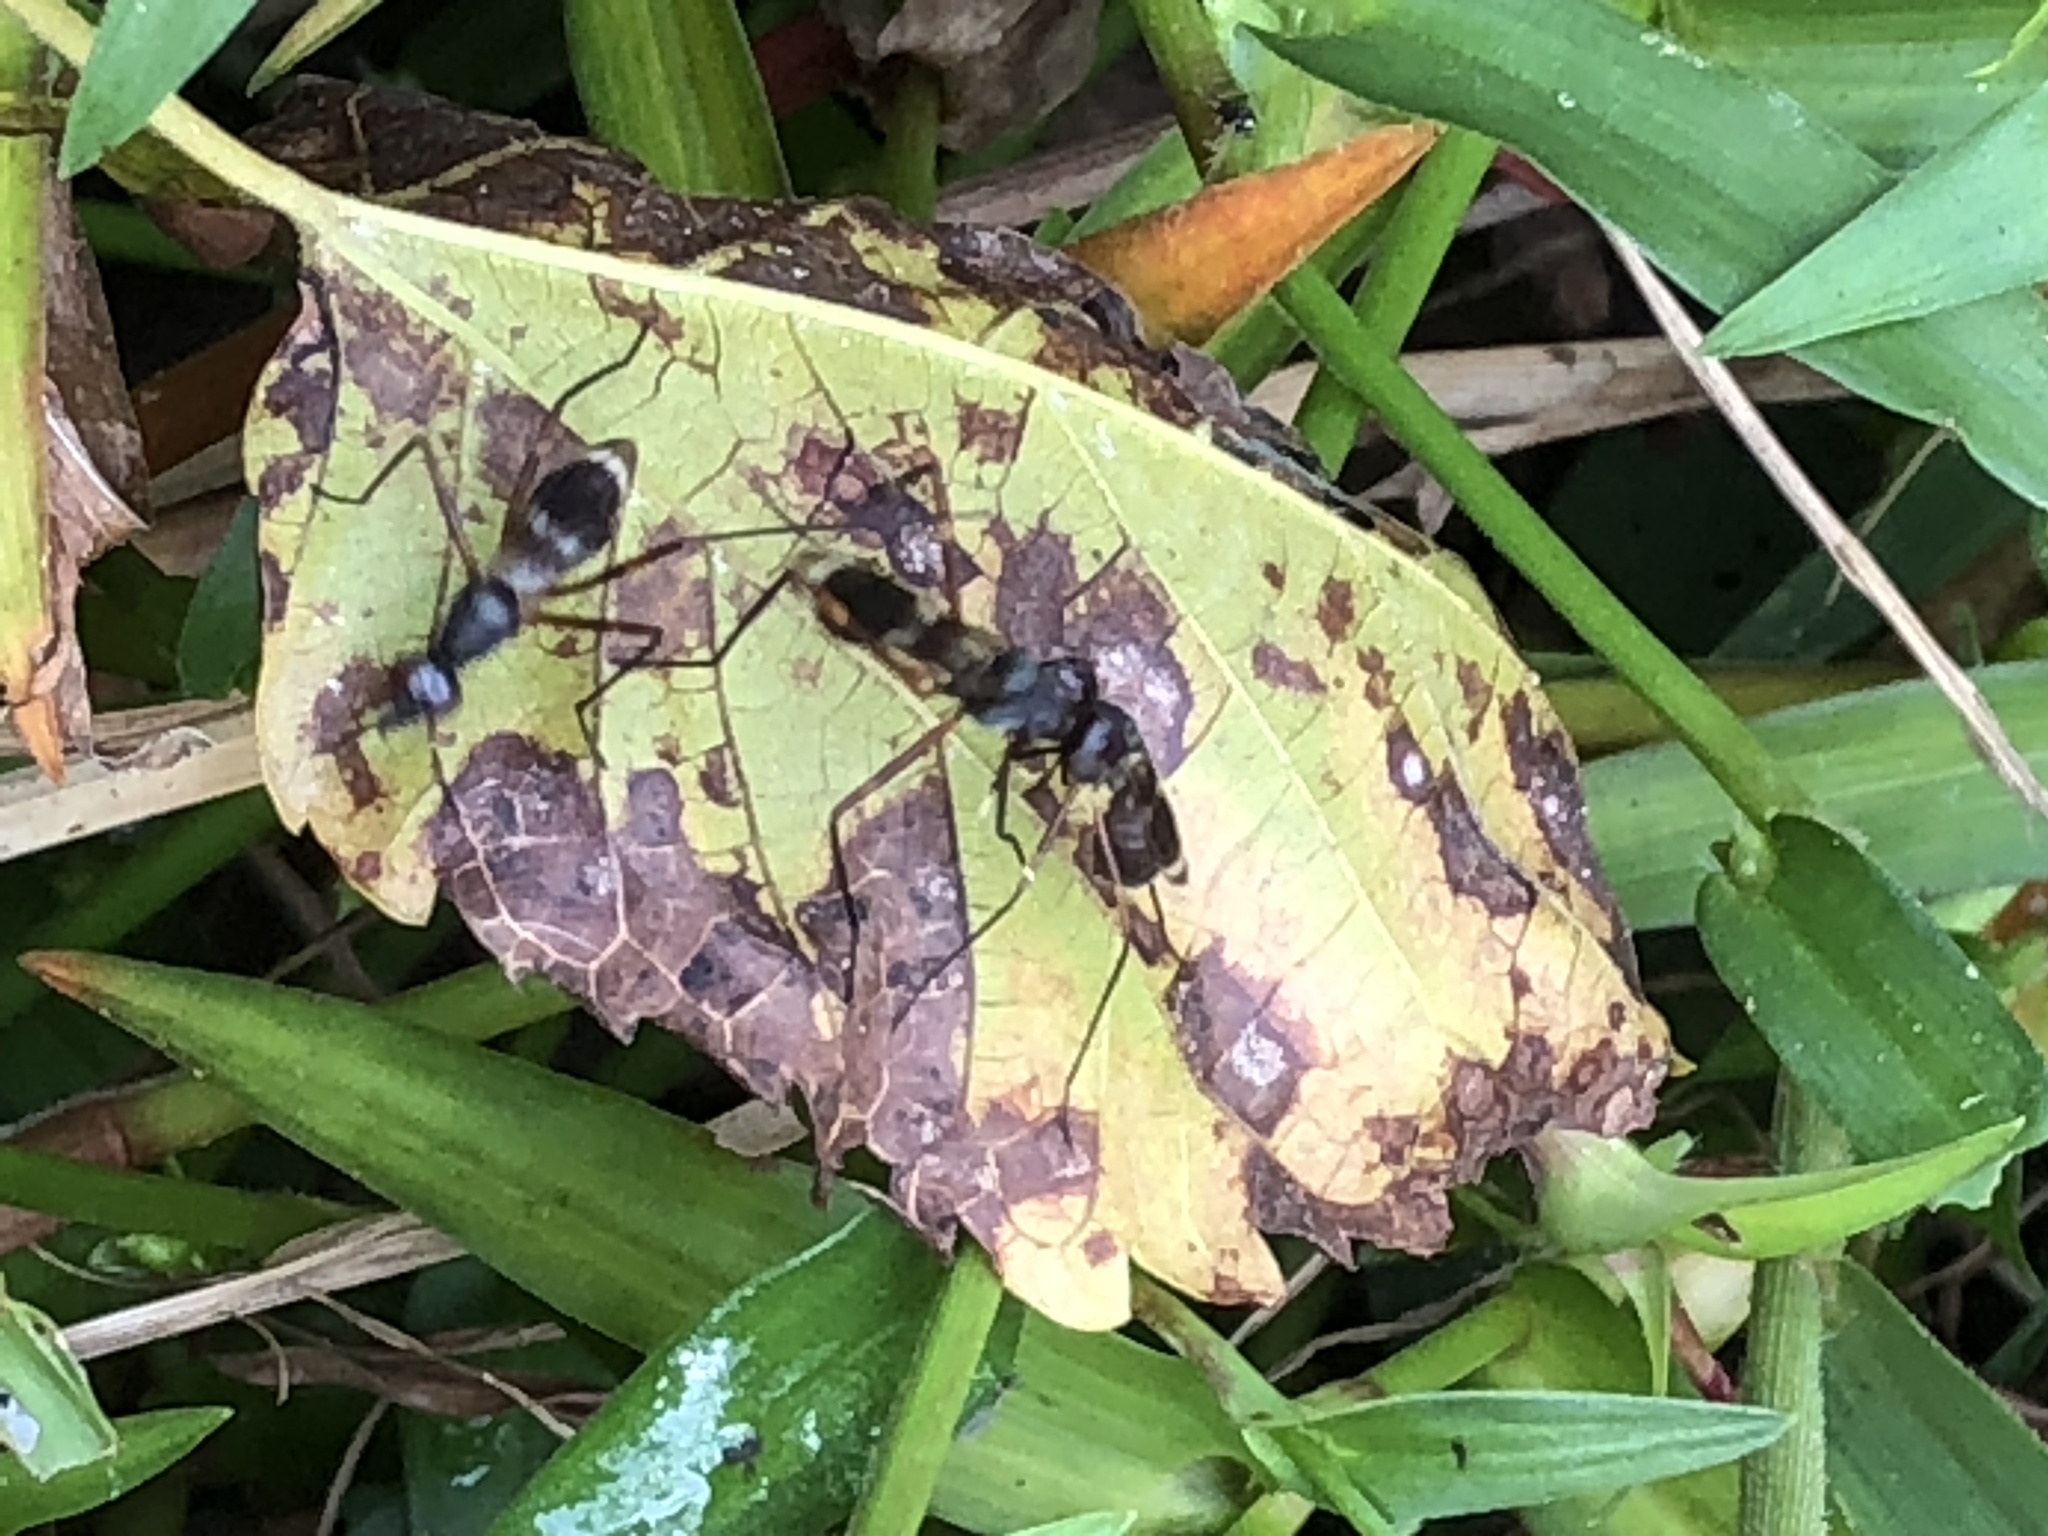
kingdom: Animalia
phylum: Arthropoda
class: Insecta
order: Diptera
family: Micropezidae
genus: Taeniaptera
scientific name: Taeniaptera trivittata
